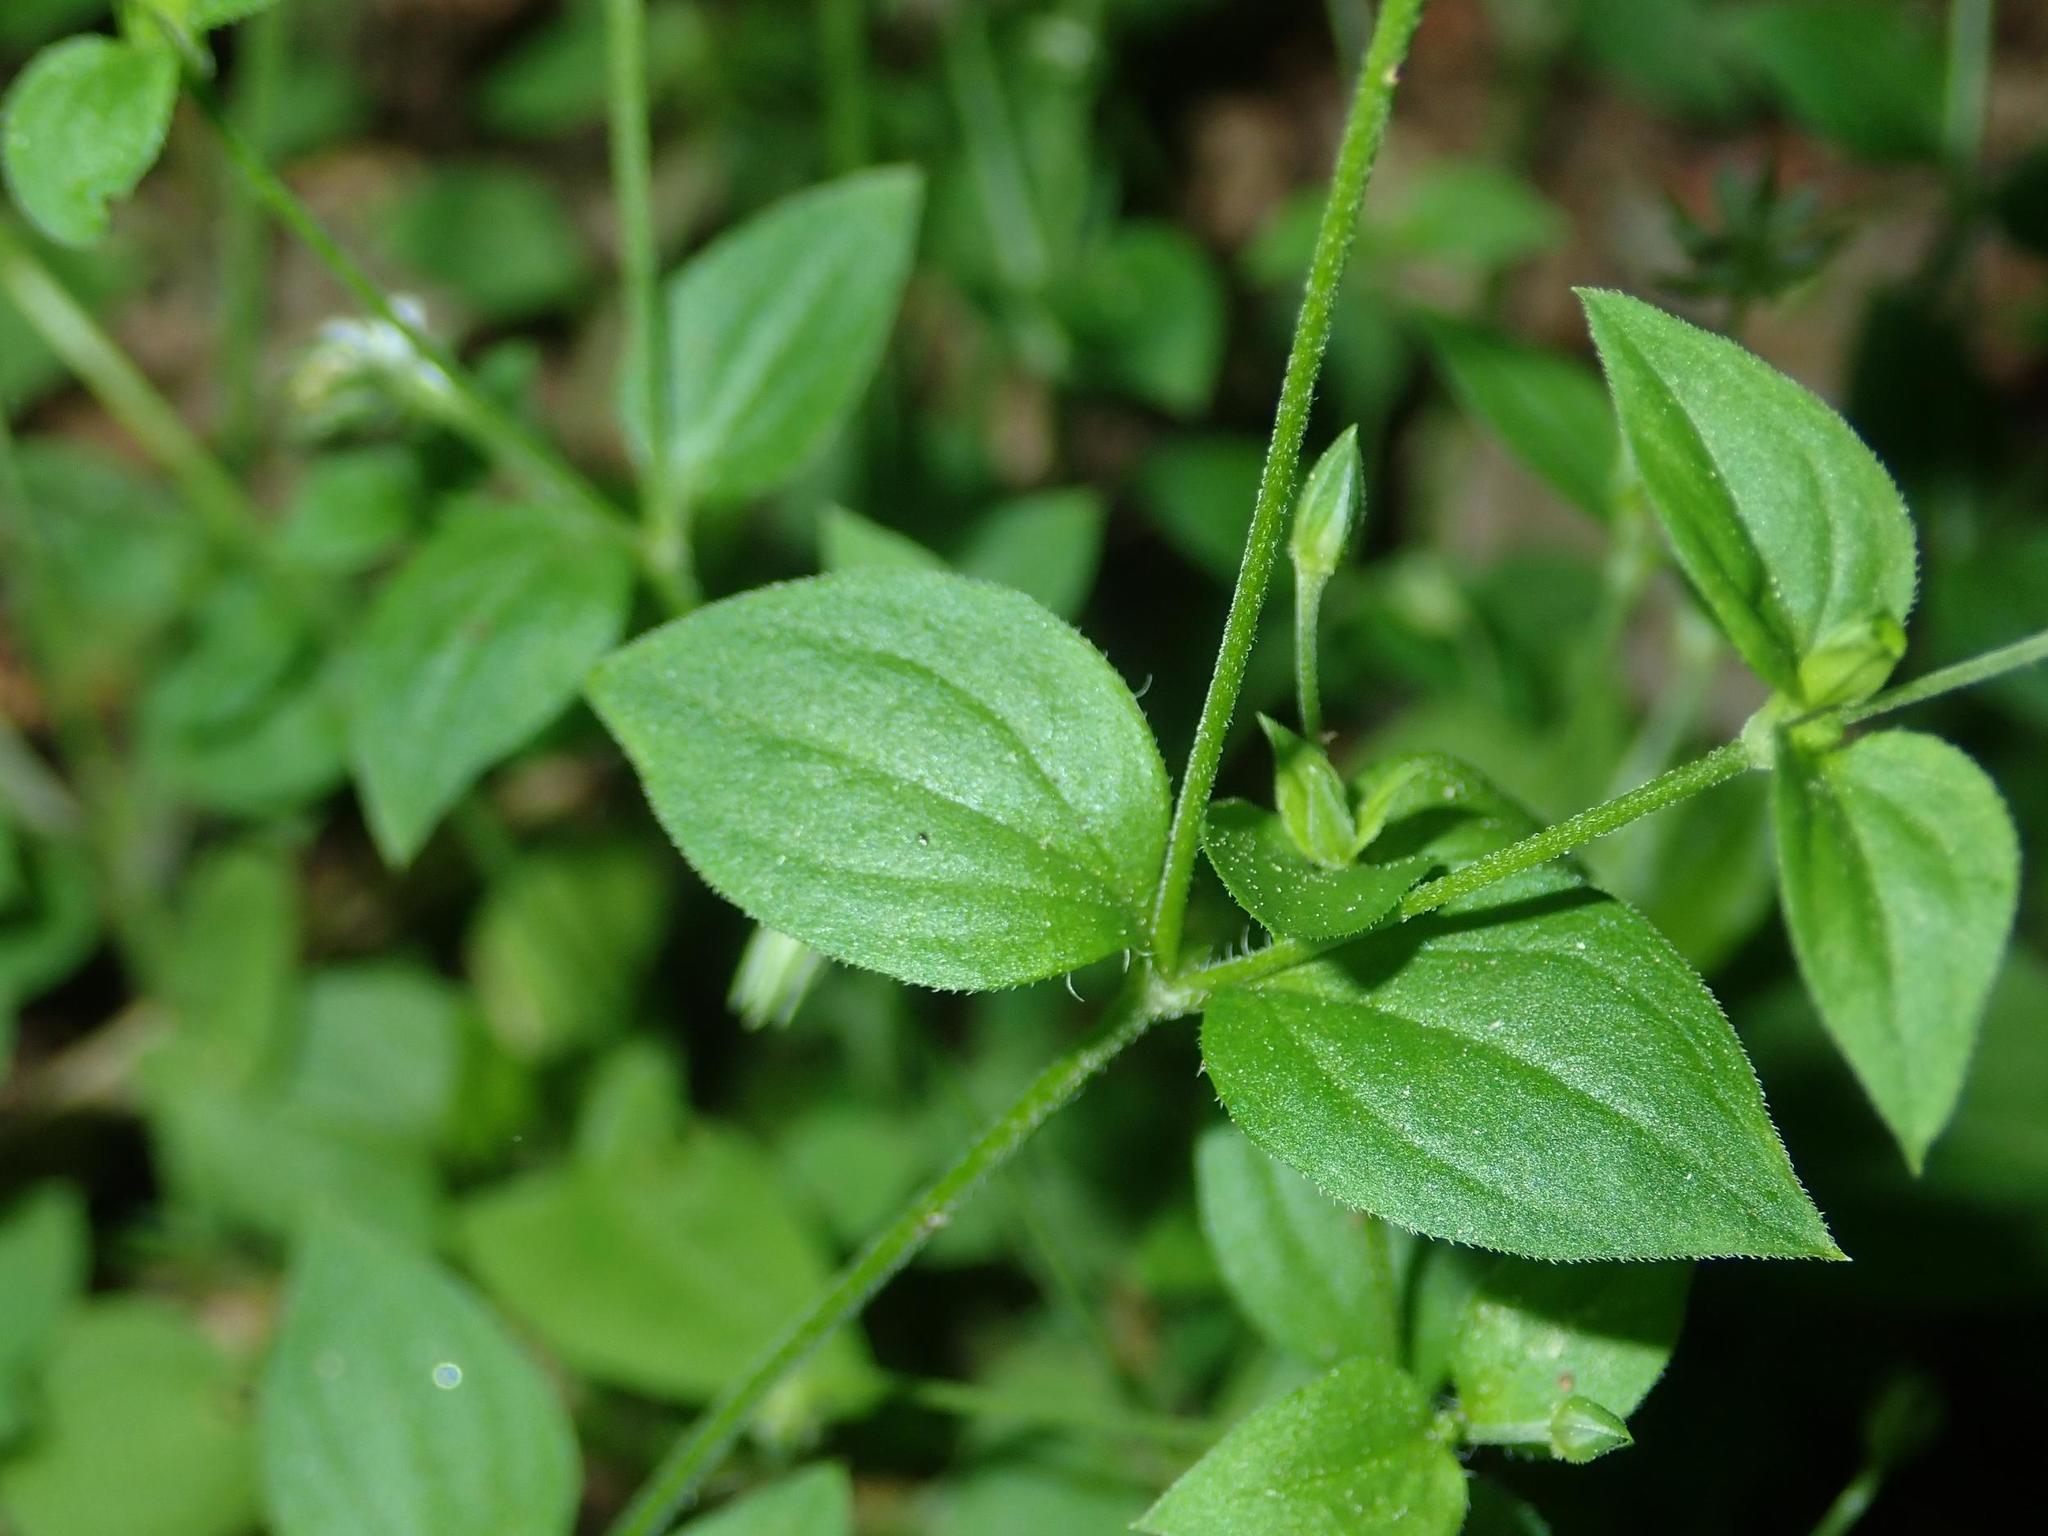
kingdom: Plantae
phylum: Tracheophyta
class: Magnoliopsida
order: Caryophyllales
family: Caryophyllaceae
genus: Moehringia
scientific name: Moehringia trinervia
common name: Three-nerved sandwort
